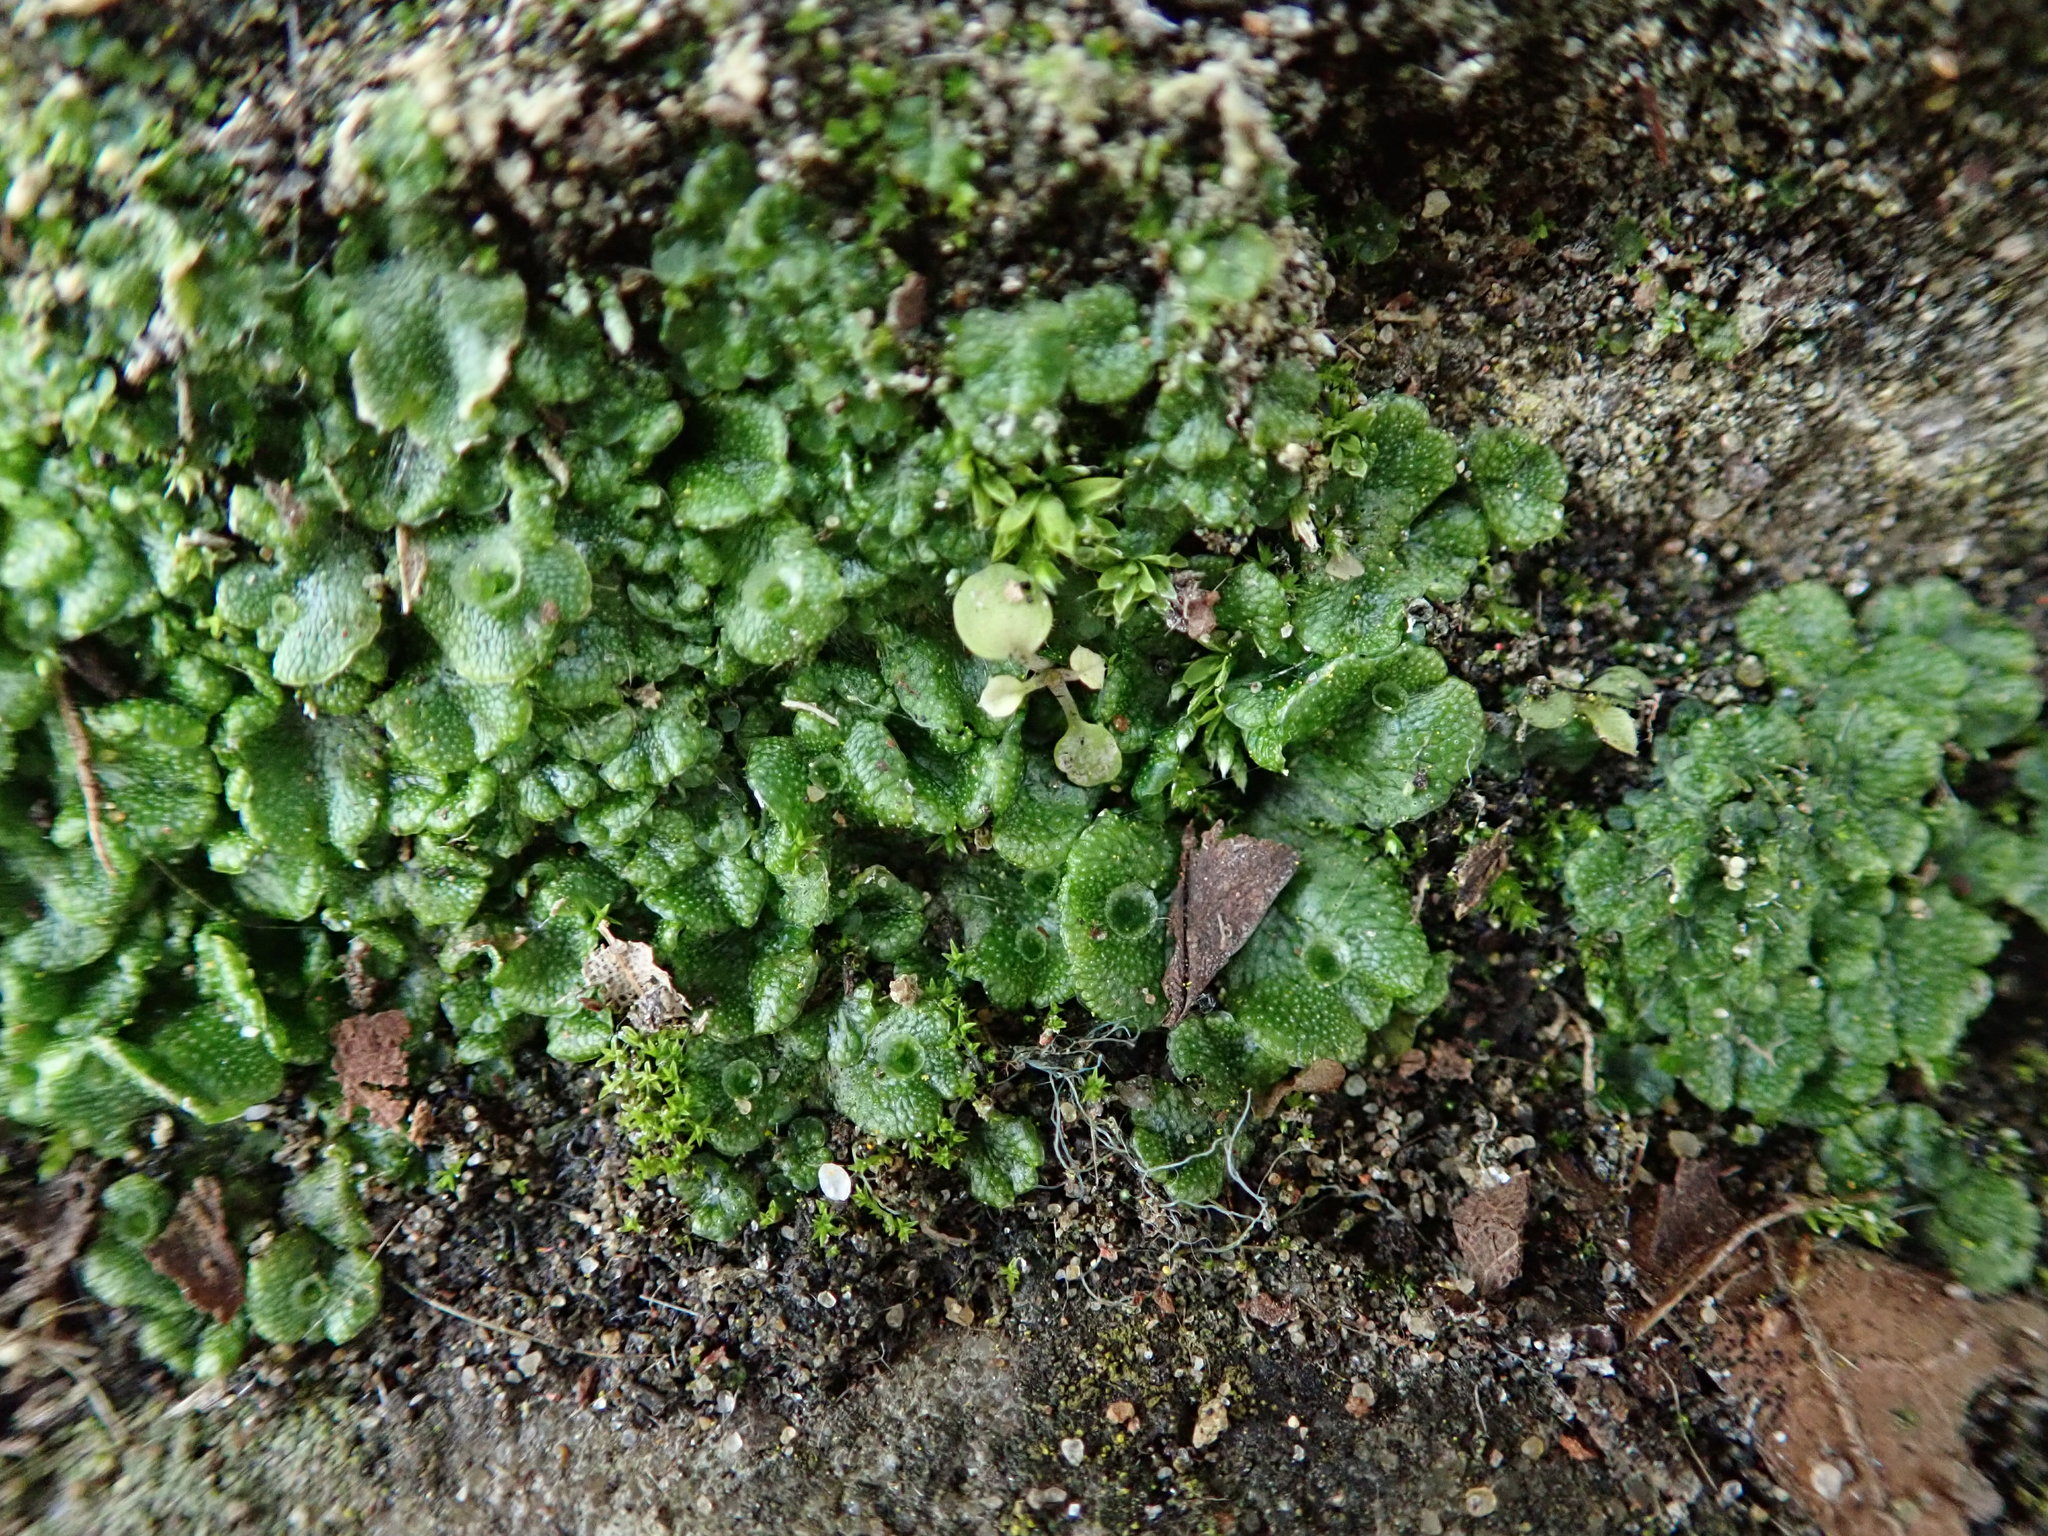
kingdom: Plantae
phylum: Marchantiophyta
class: Marchantiopsida
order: Marchantiales
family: Marchantiaceae
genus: Marchantia
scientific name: Marchantia polymorpha
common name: Common liverwort
